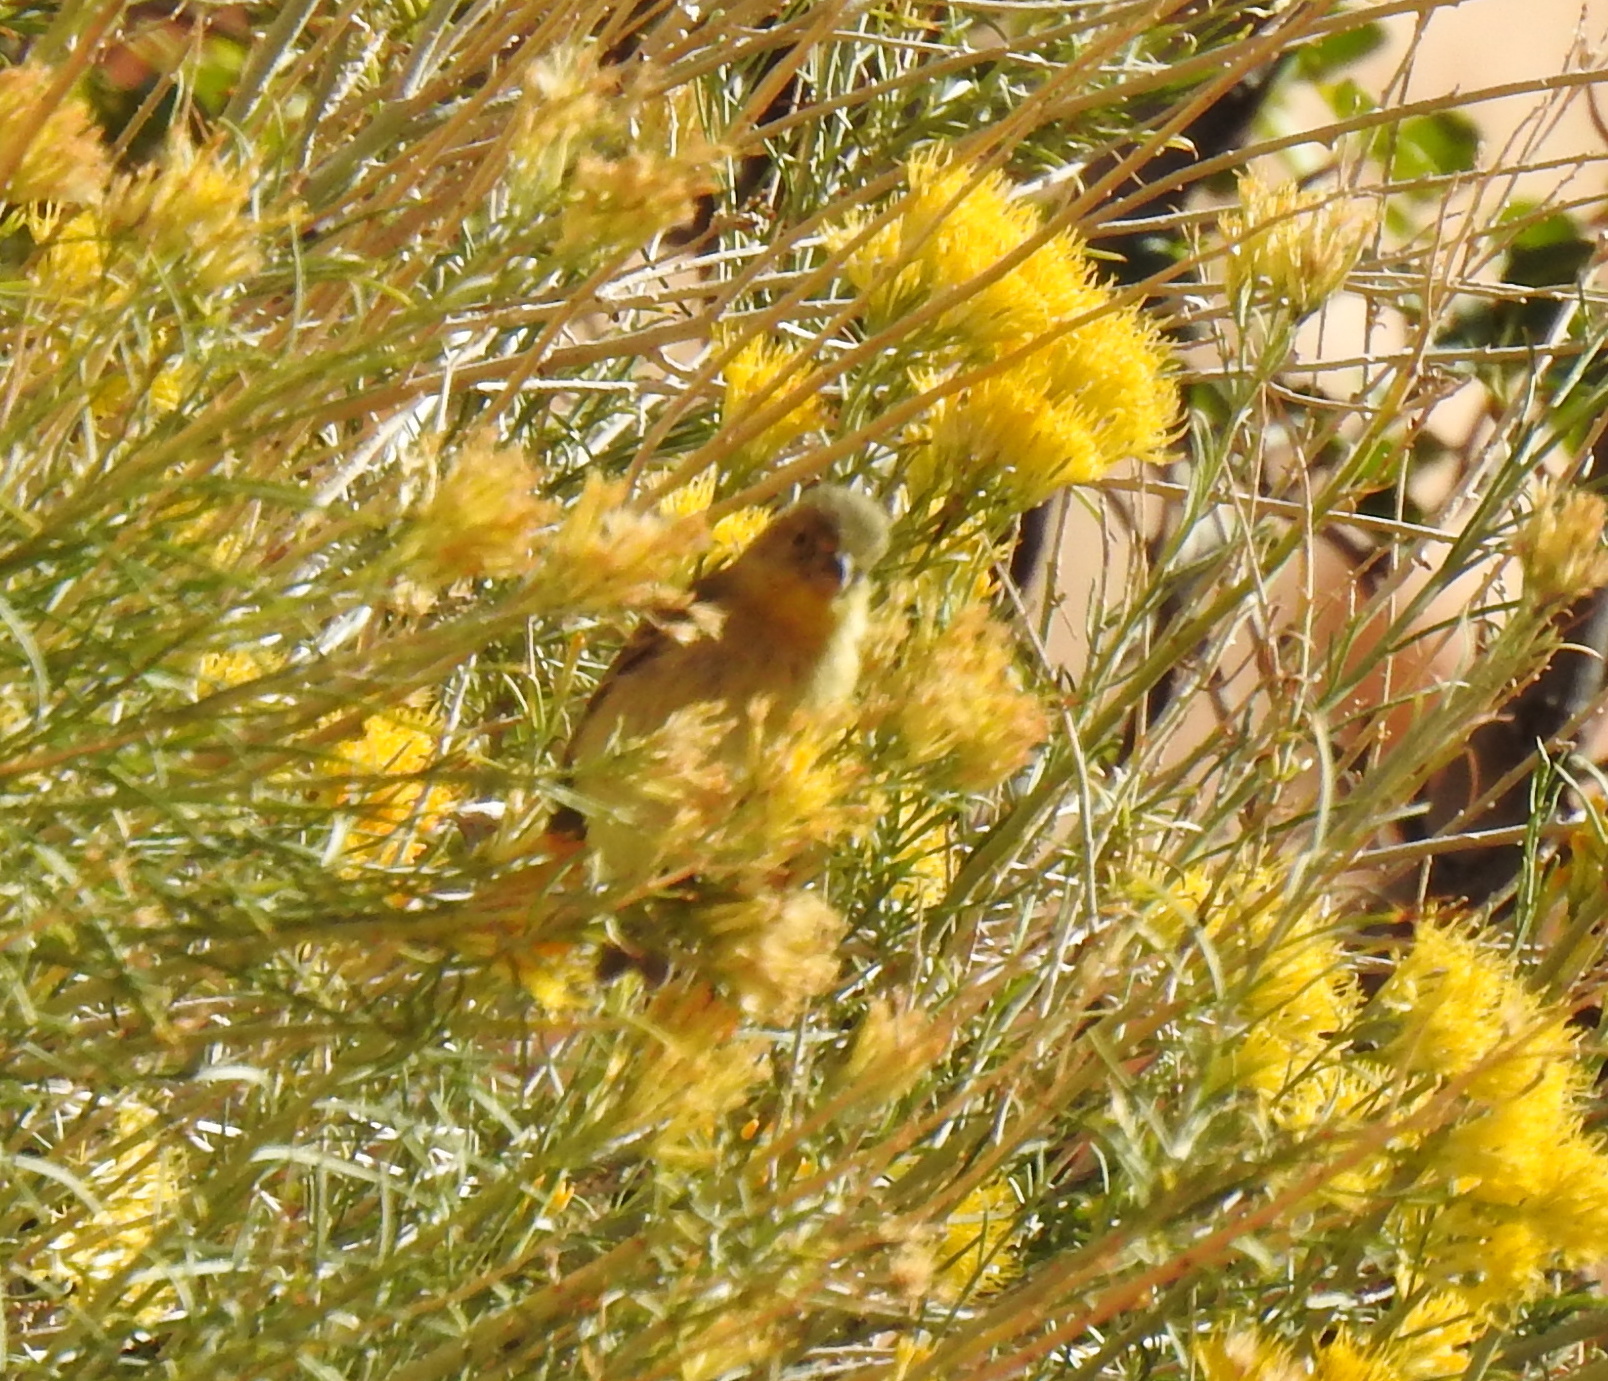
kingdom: Animalia
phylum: Chordata
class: Aves
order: Passeriformes
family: Fringillidae
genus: Spinus
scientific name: Spinus psaltria
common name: Lesser goldfinch
